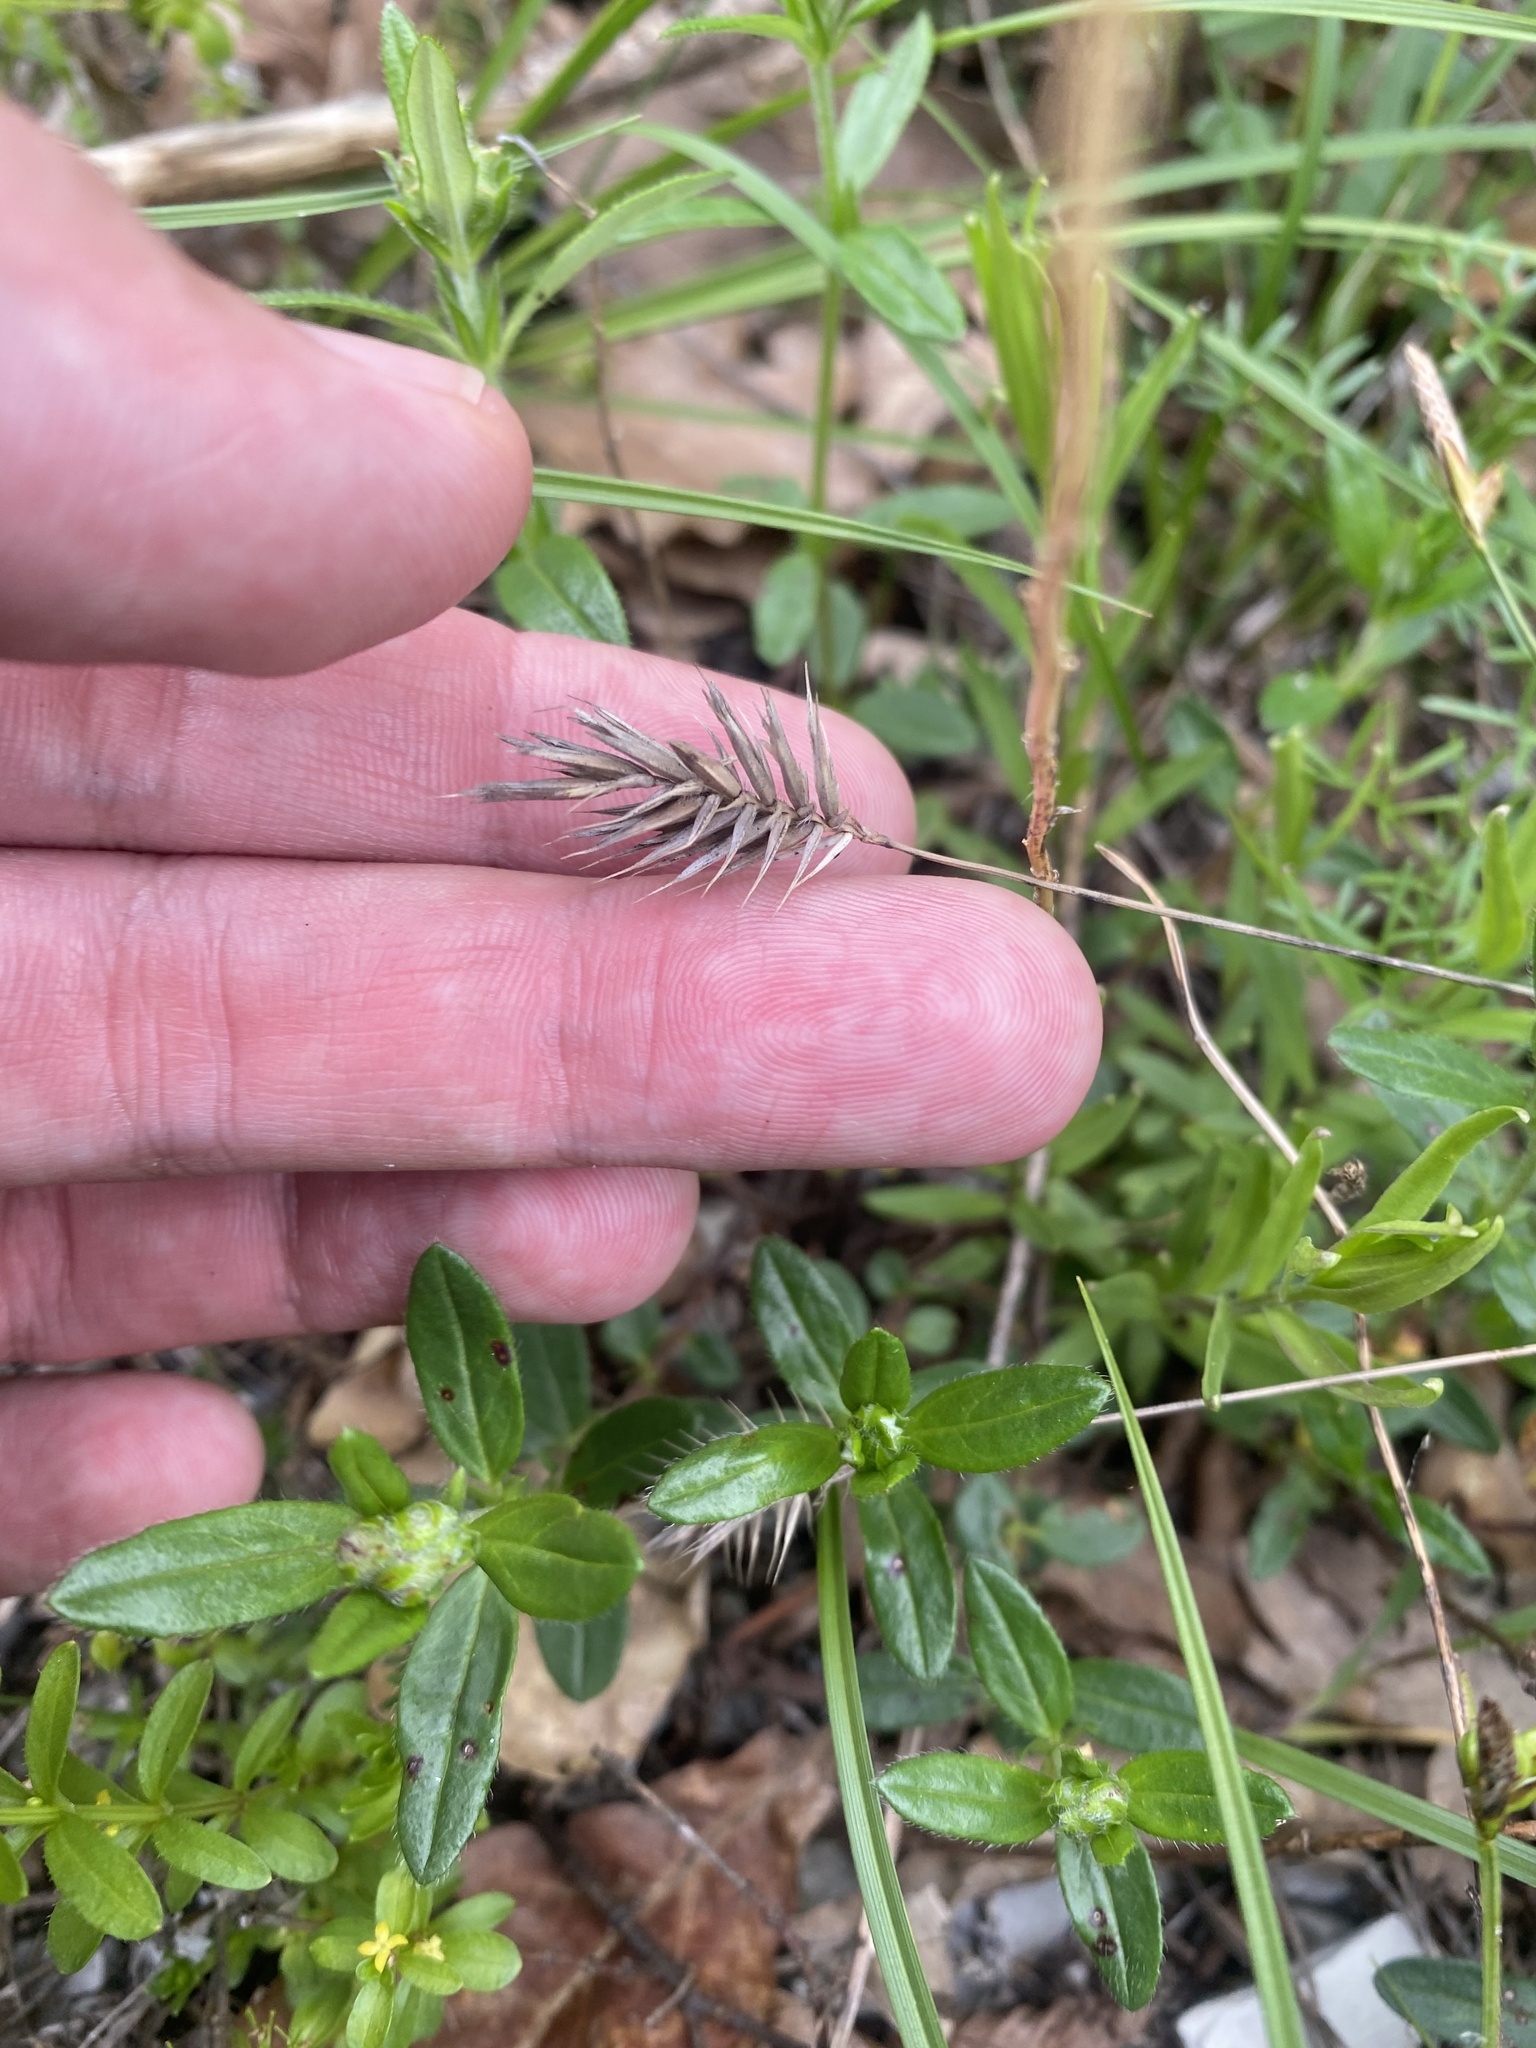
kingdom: Plantae
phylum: Tracheophyta
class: Liliopsida
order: Poales
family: Poaceae
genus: Agropyron
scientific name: Agropyron cristatum
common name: Crested wheatgrass
